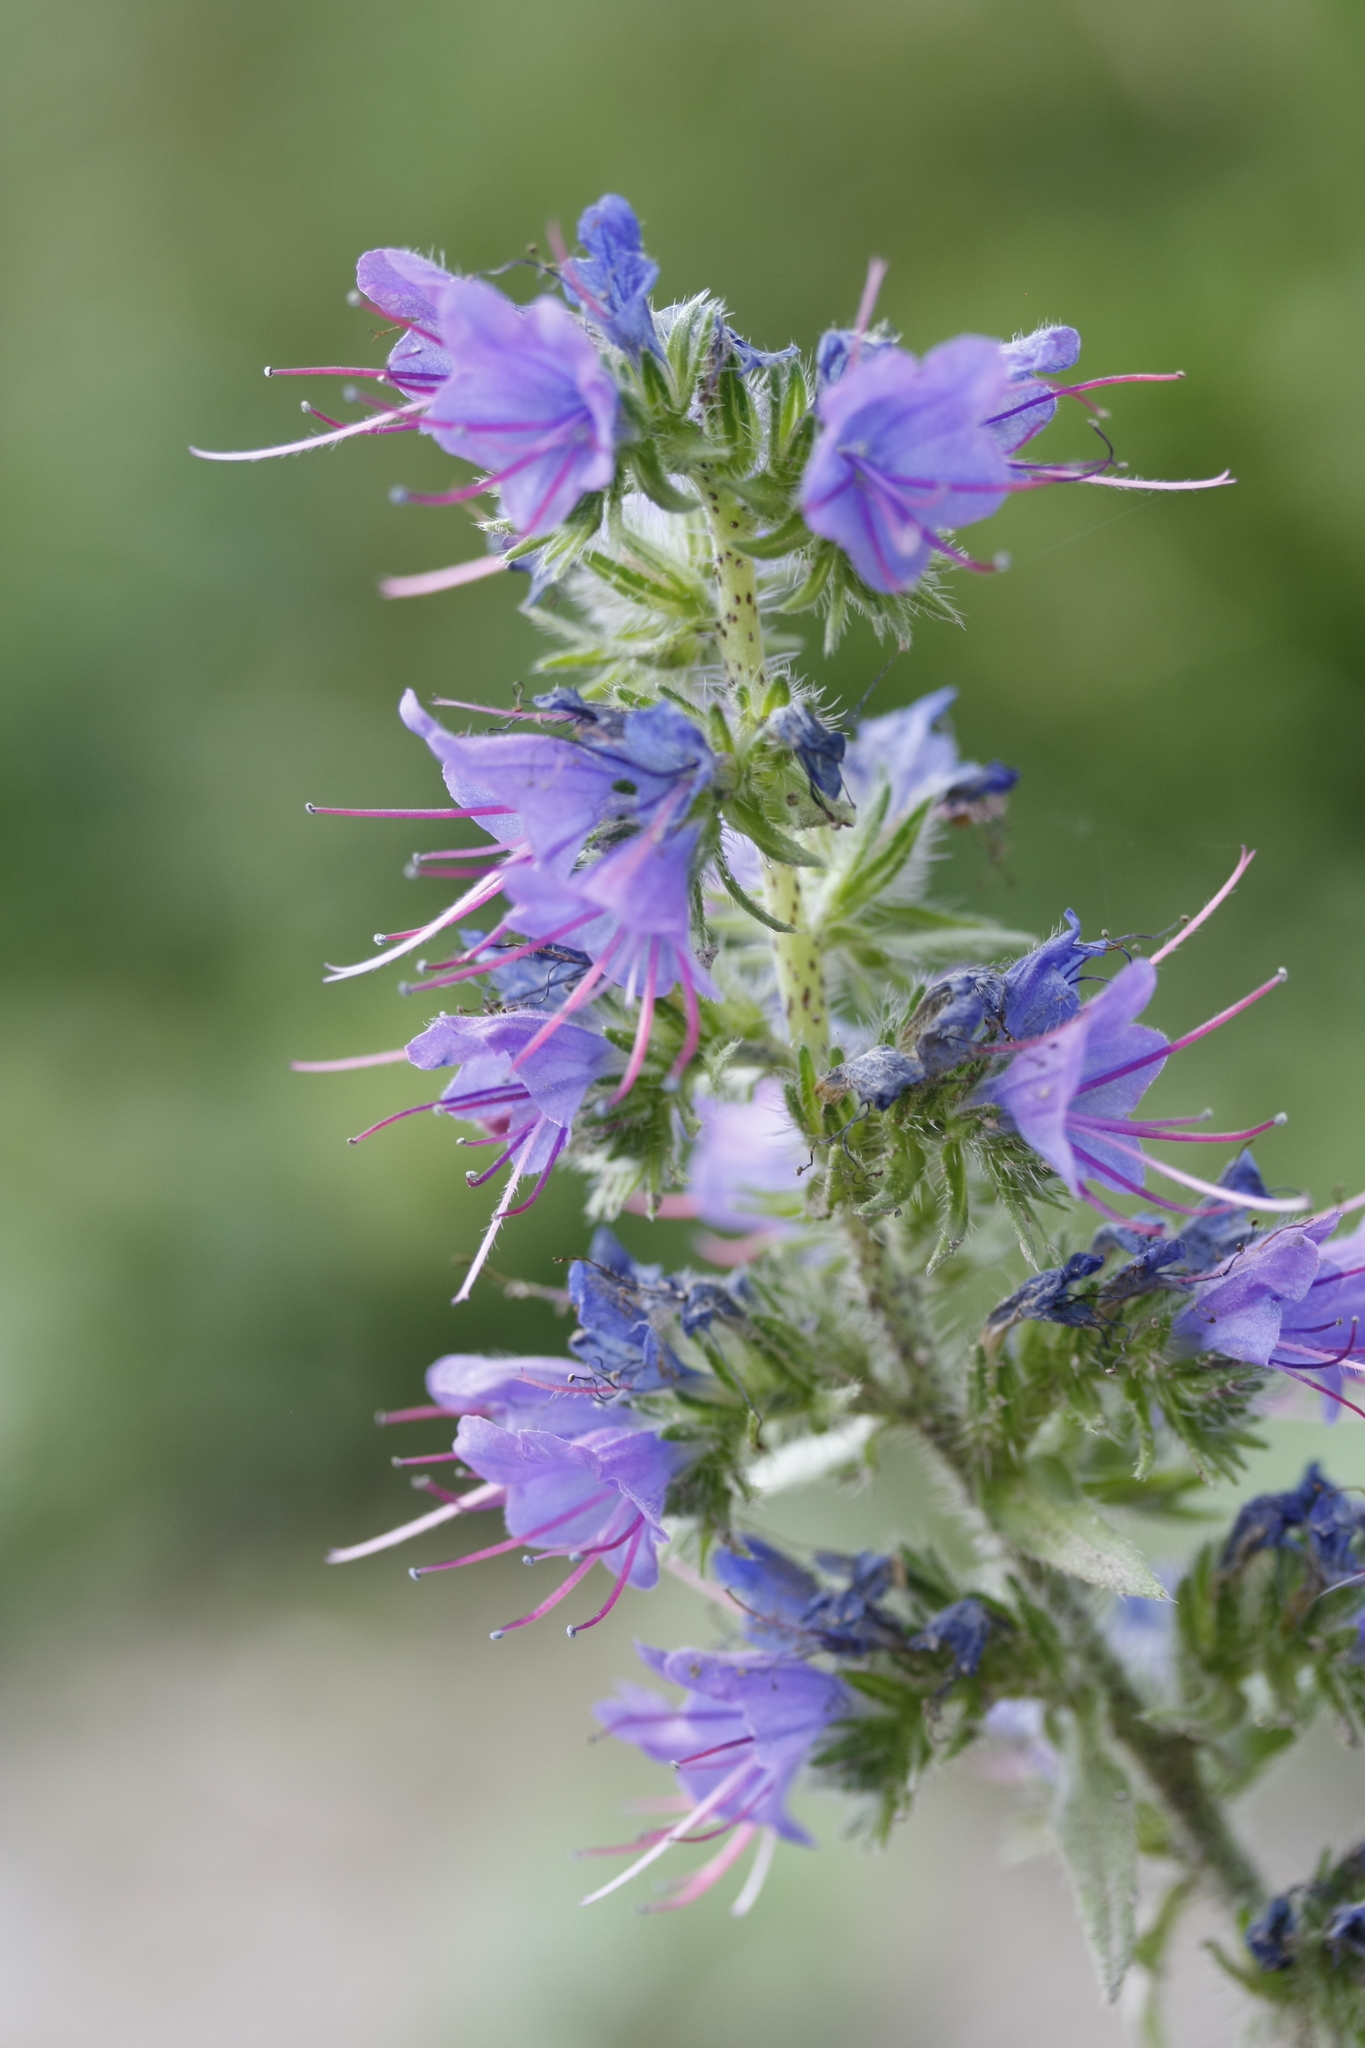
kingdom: Plantae
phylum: Tracheophyta
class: Magnoliopsida
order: Boraginales
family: Boraginaceae
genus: Echium
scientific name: Echium vulgare
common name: Common viper's bugloss
